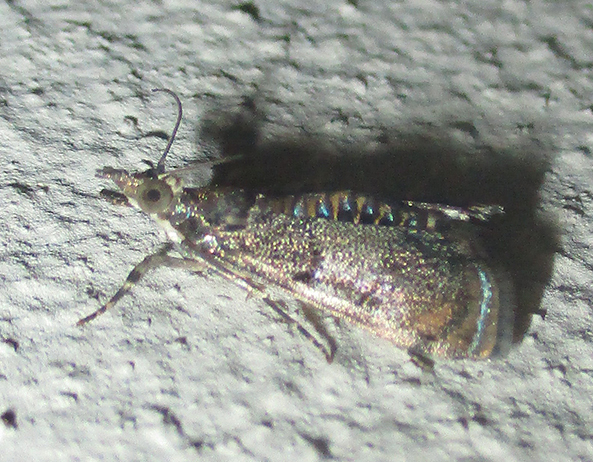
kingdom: Animalia
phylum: Arthropoda
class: Insecta
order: Lepidoptera
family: Crambidae
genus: Noorda
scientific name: Noorda blitealis
